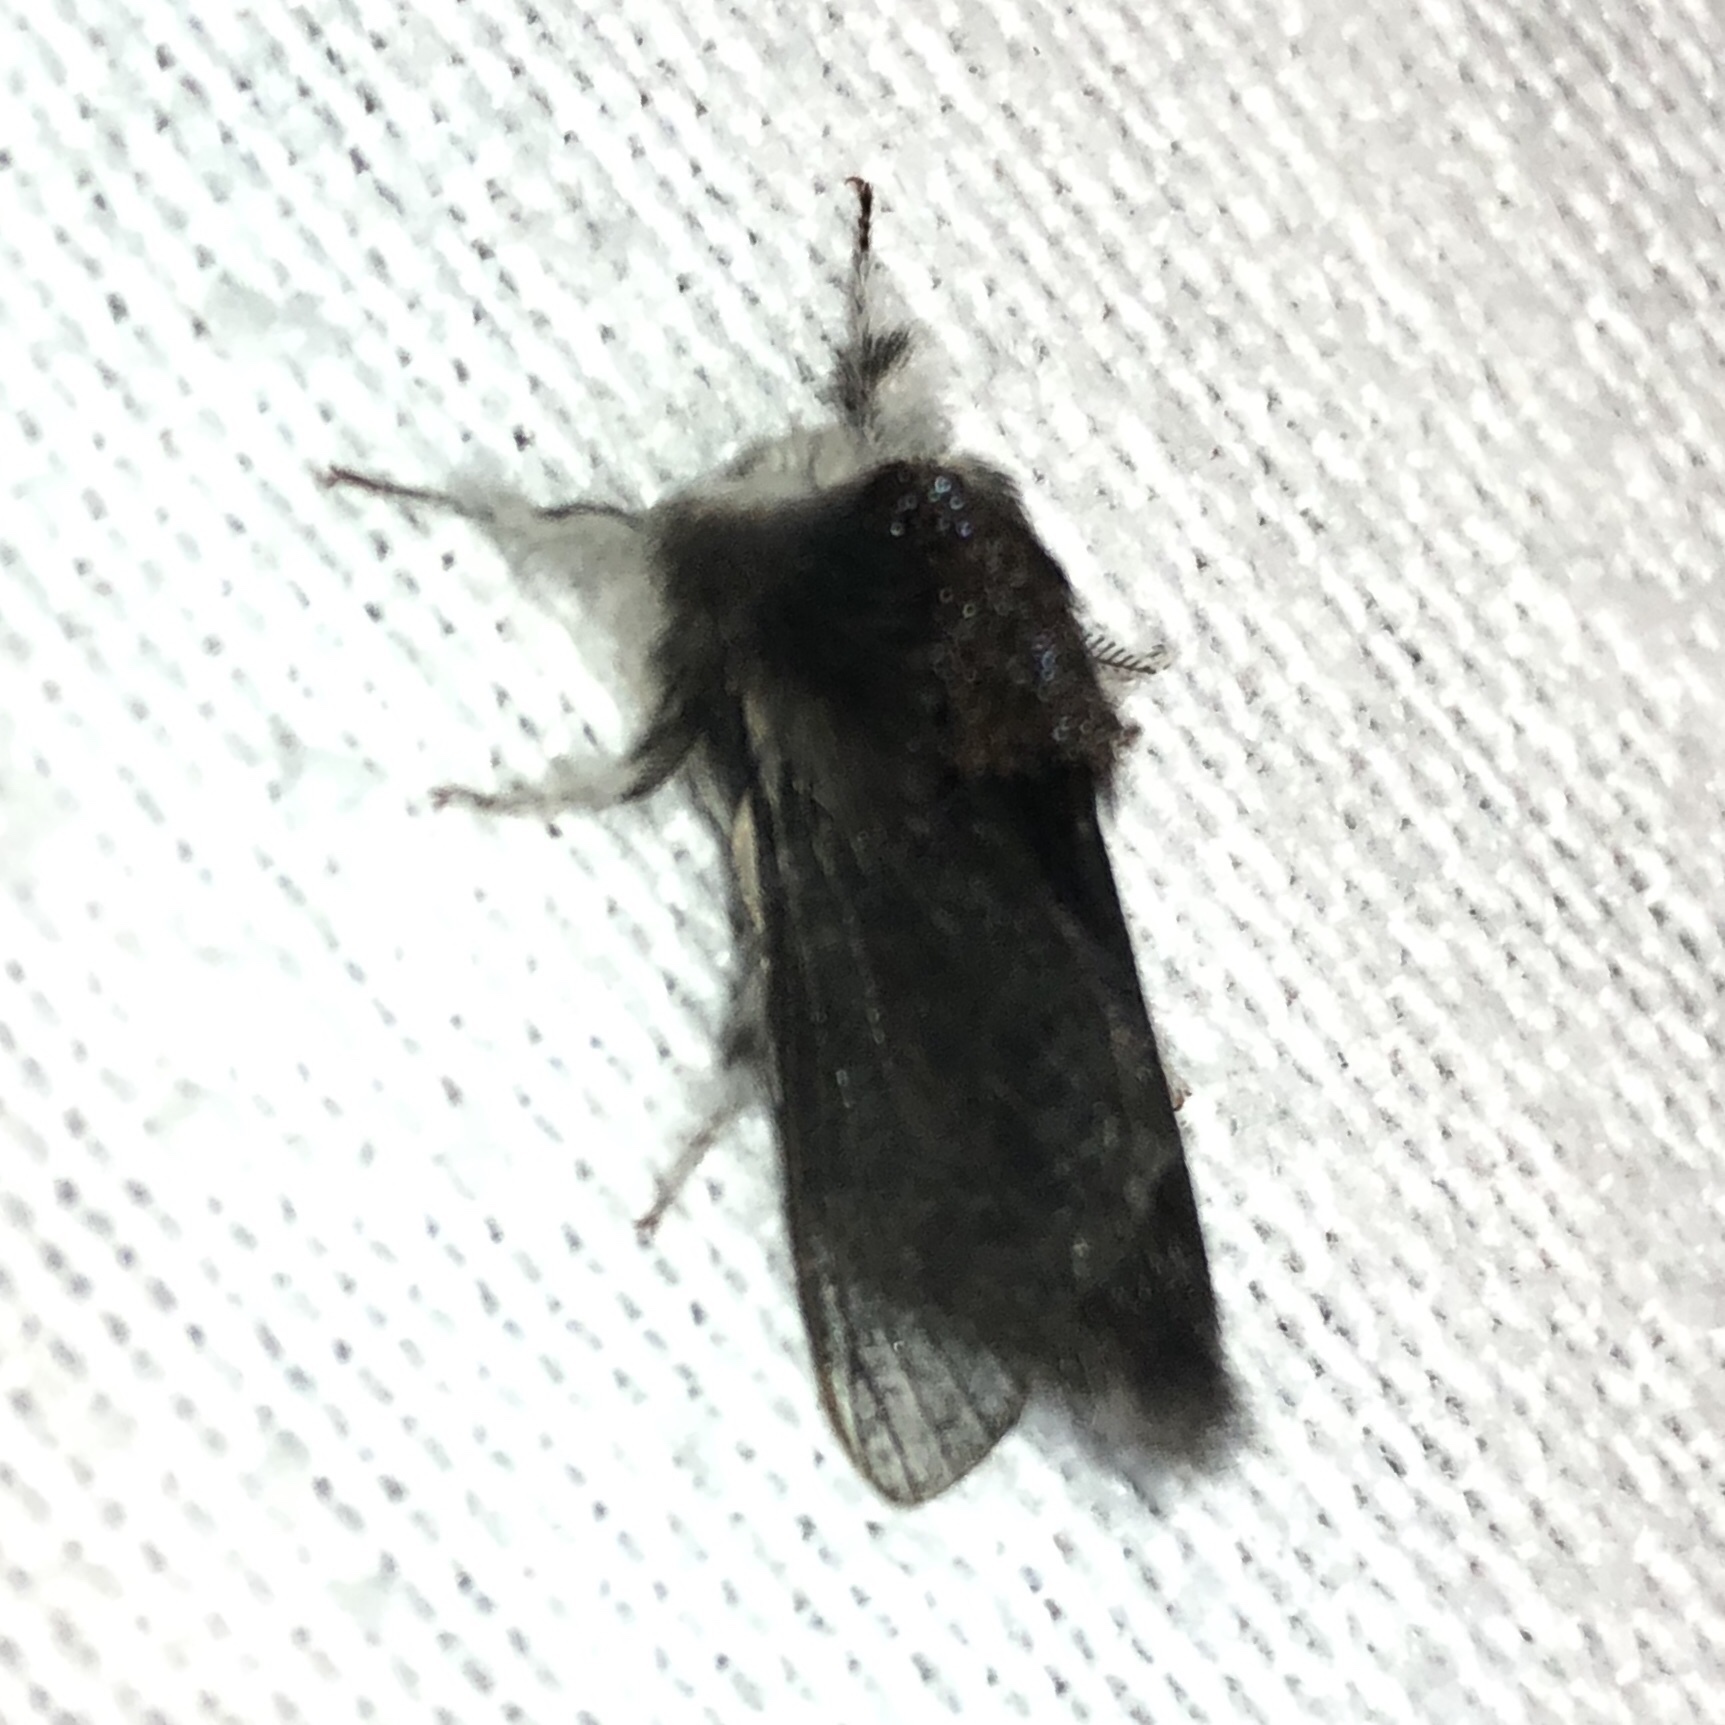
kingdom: Animalia
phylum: Arthropoda
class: Insecta
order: Lepidoptera
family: Lasiocampidae
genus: Tolype
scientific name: Tolype laricis
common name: Larch tolype moth
